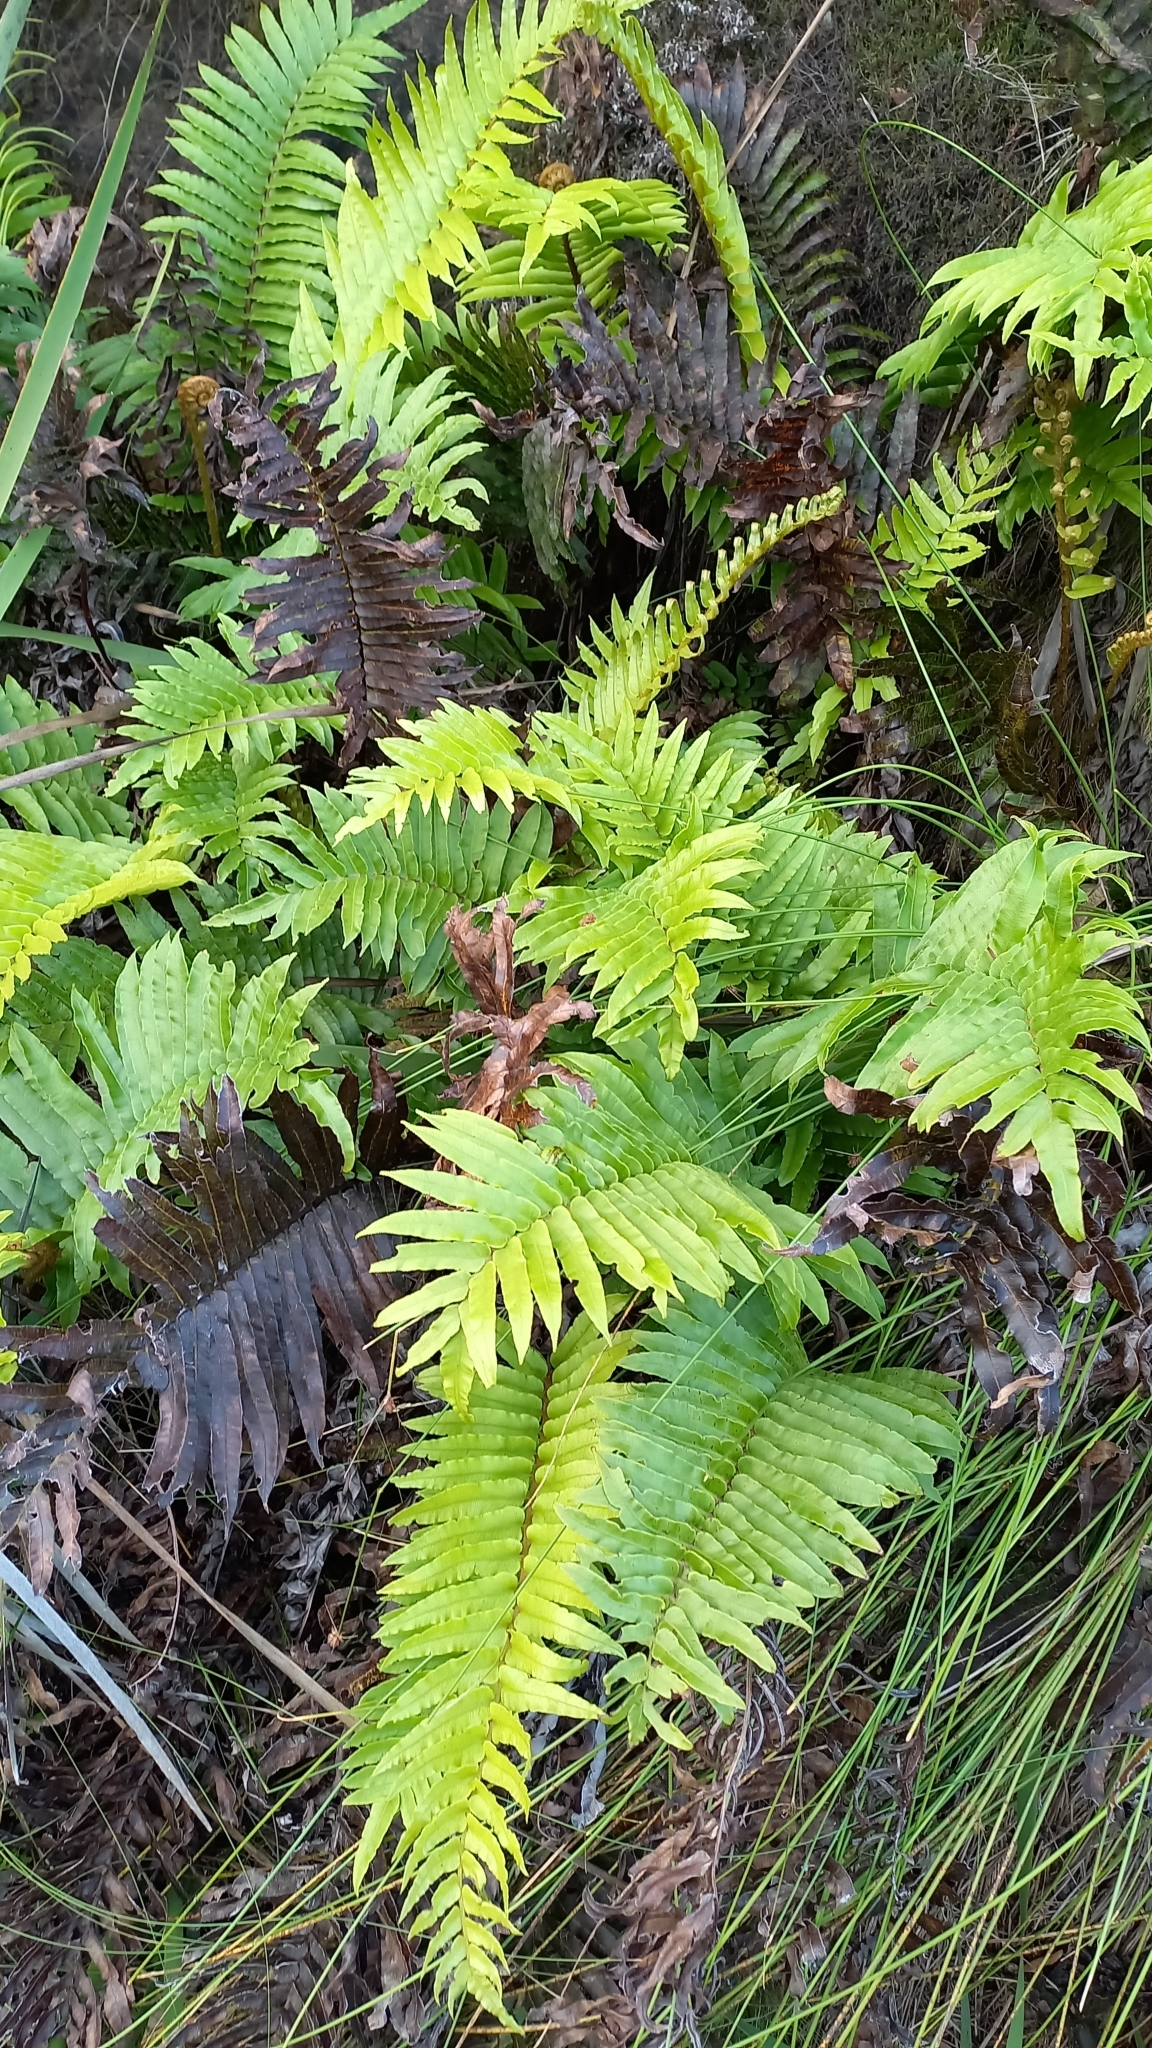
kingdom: Plantae
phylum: Tracheophyta
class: Polypodiopsida
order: Polypodiales
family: Blechnaceae
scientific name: Blechnaceae
